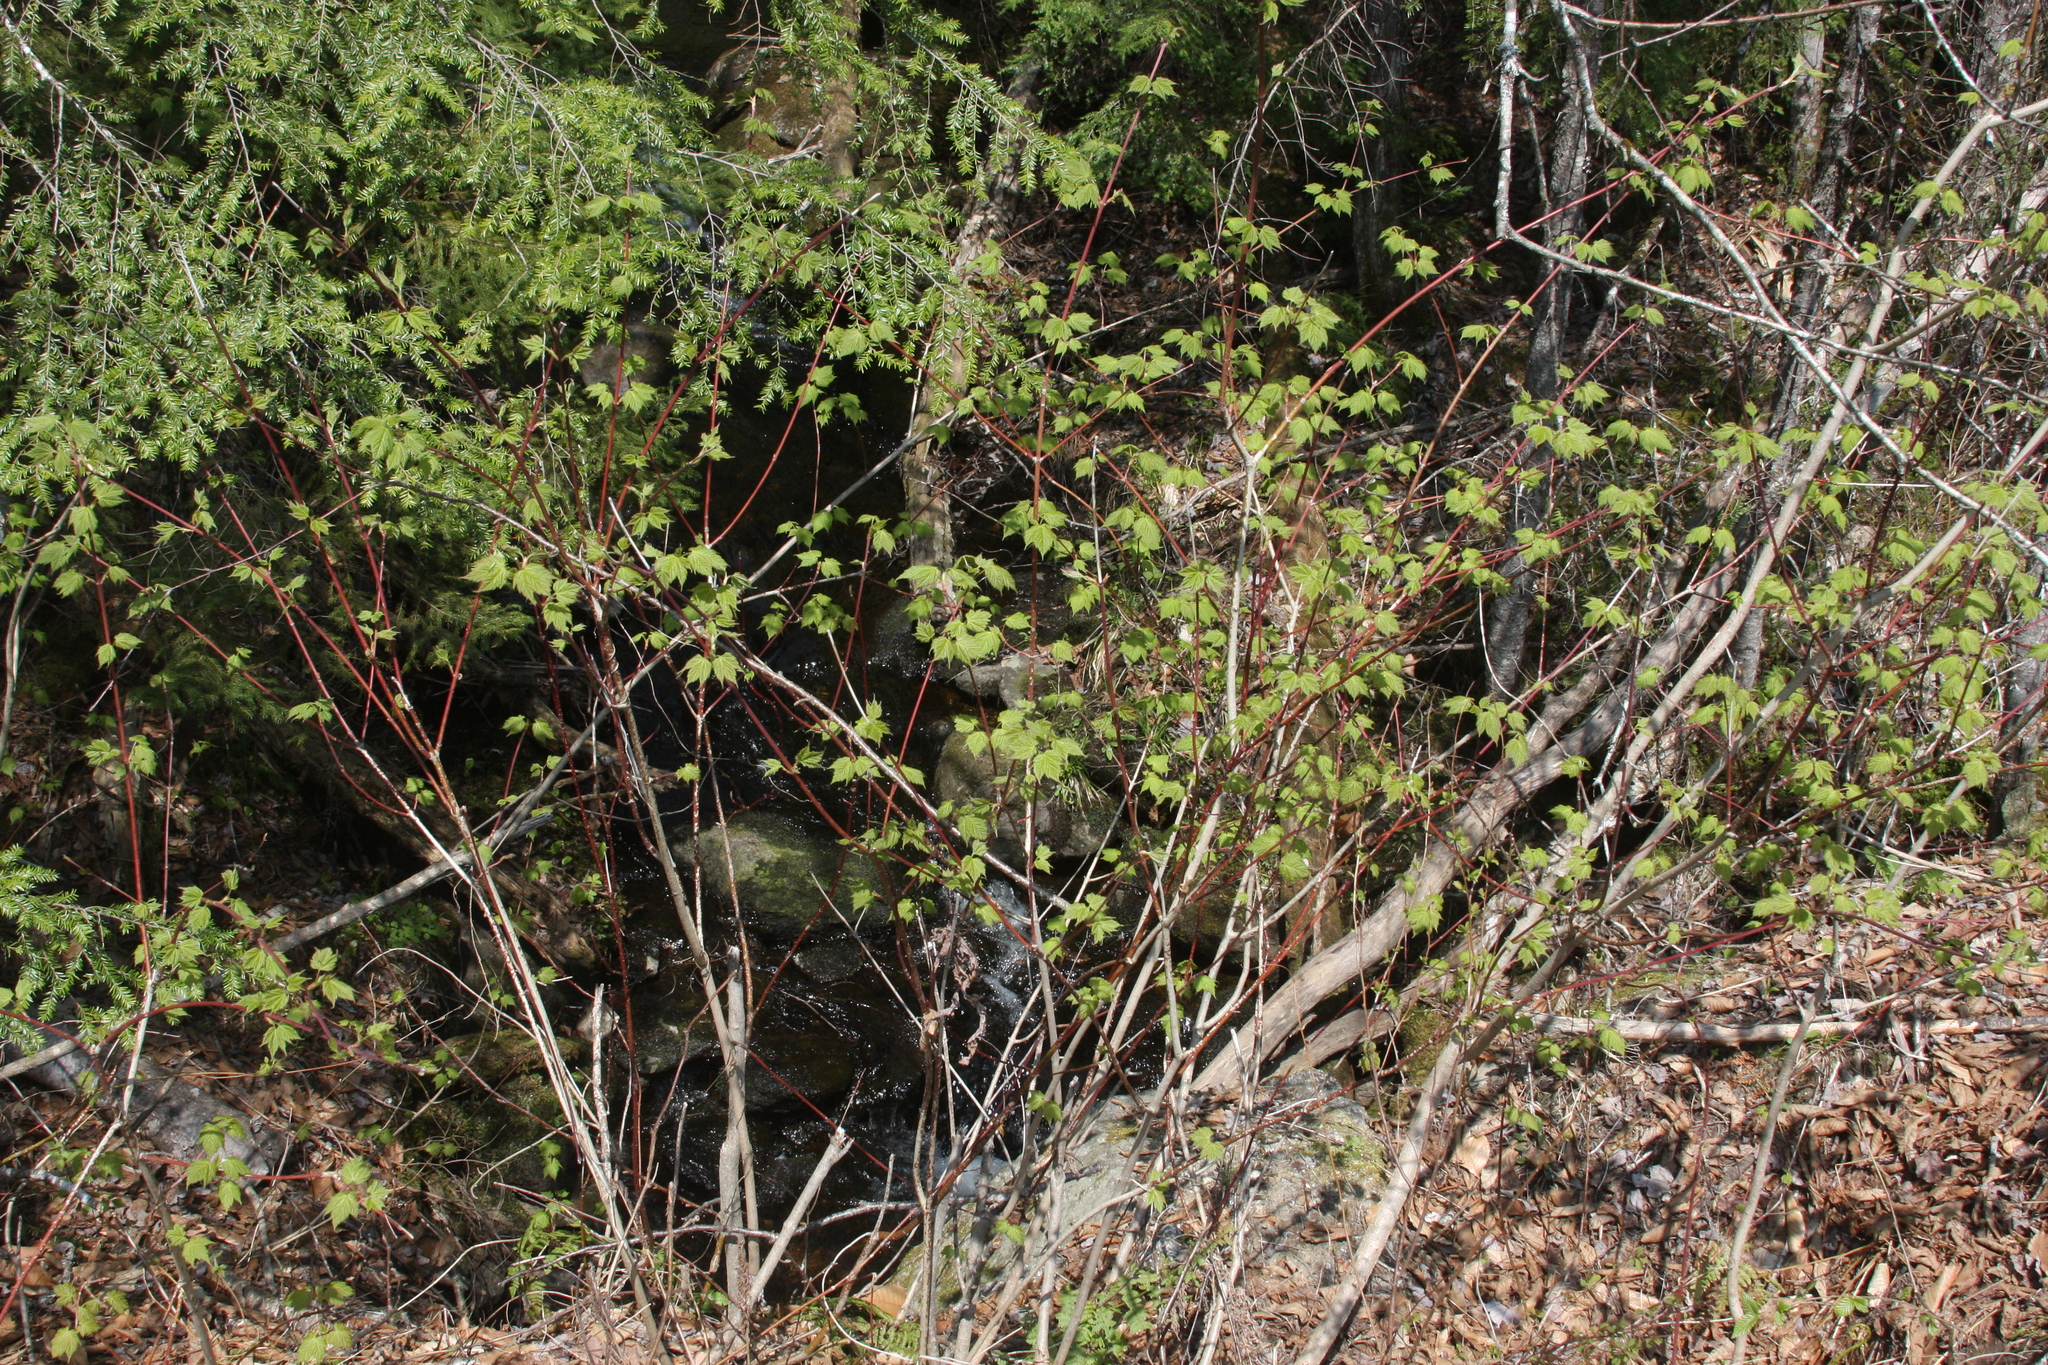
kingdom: Plantae
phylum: Tracheophyta
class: Magnoliopsida
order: Sapindales
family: Sapindaceae
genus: Acer
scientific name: Acer spicatum
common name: Mountain maple
